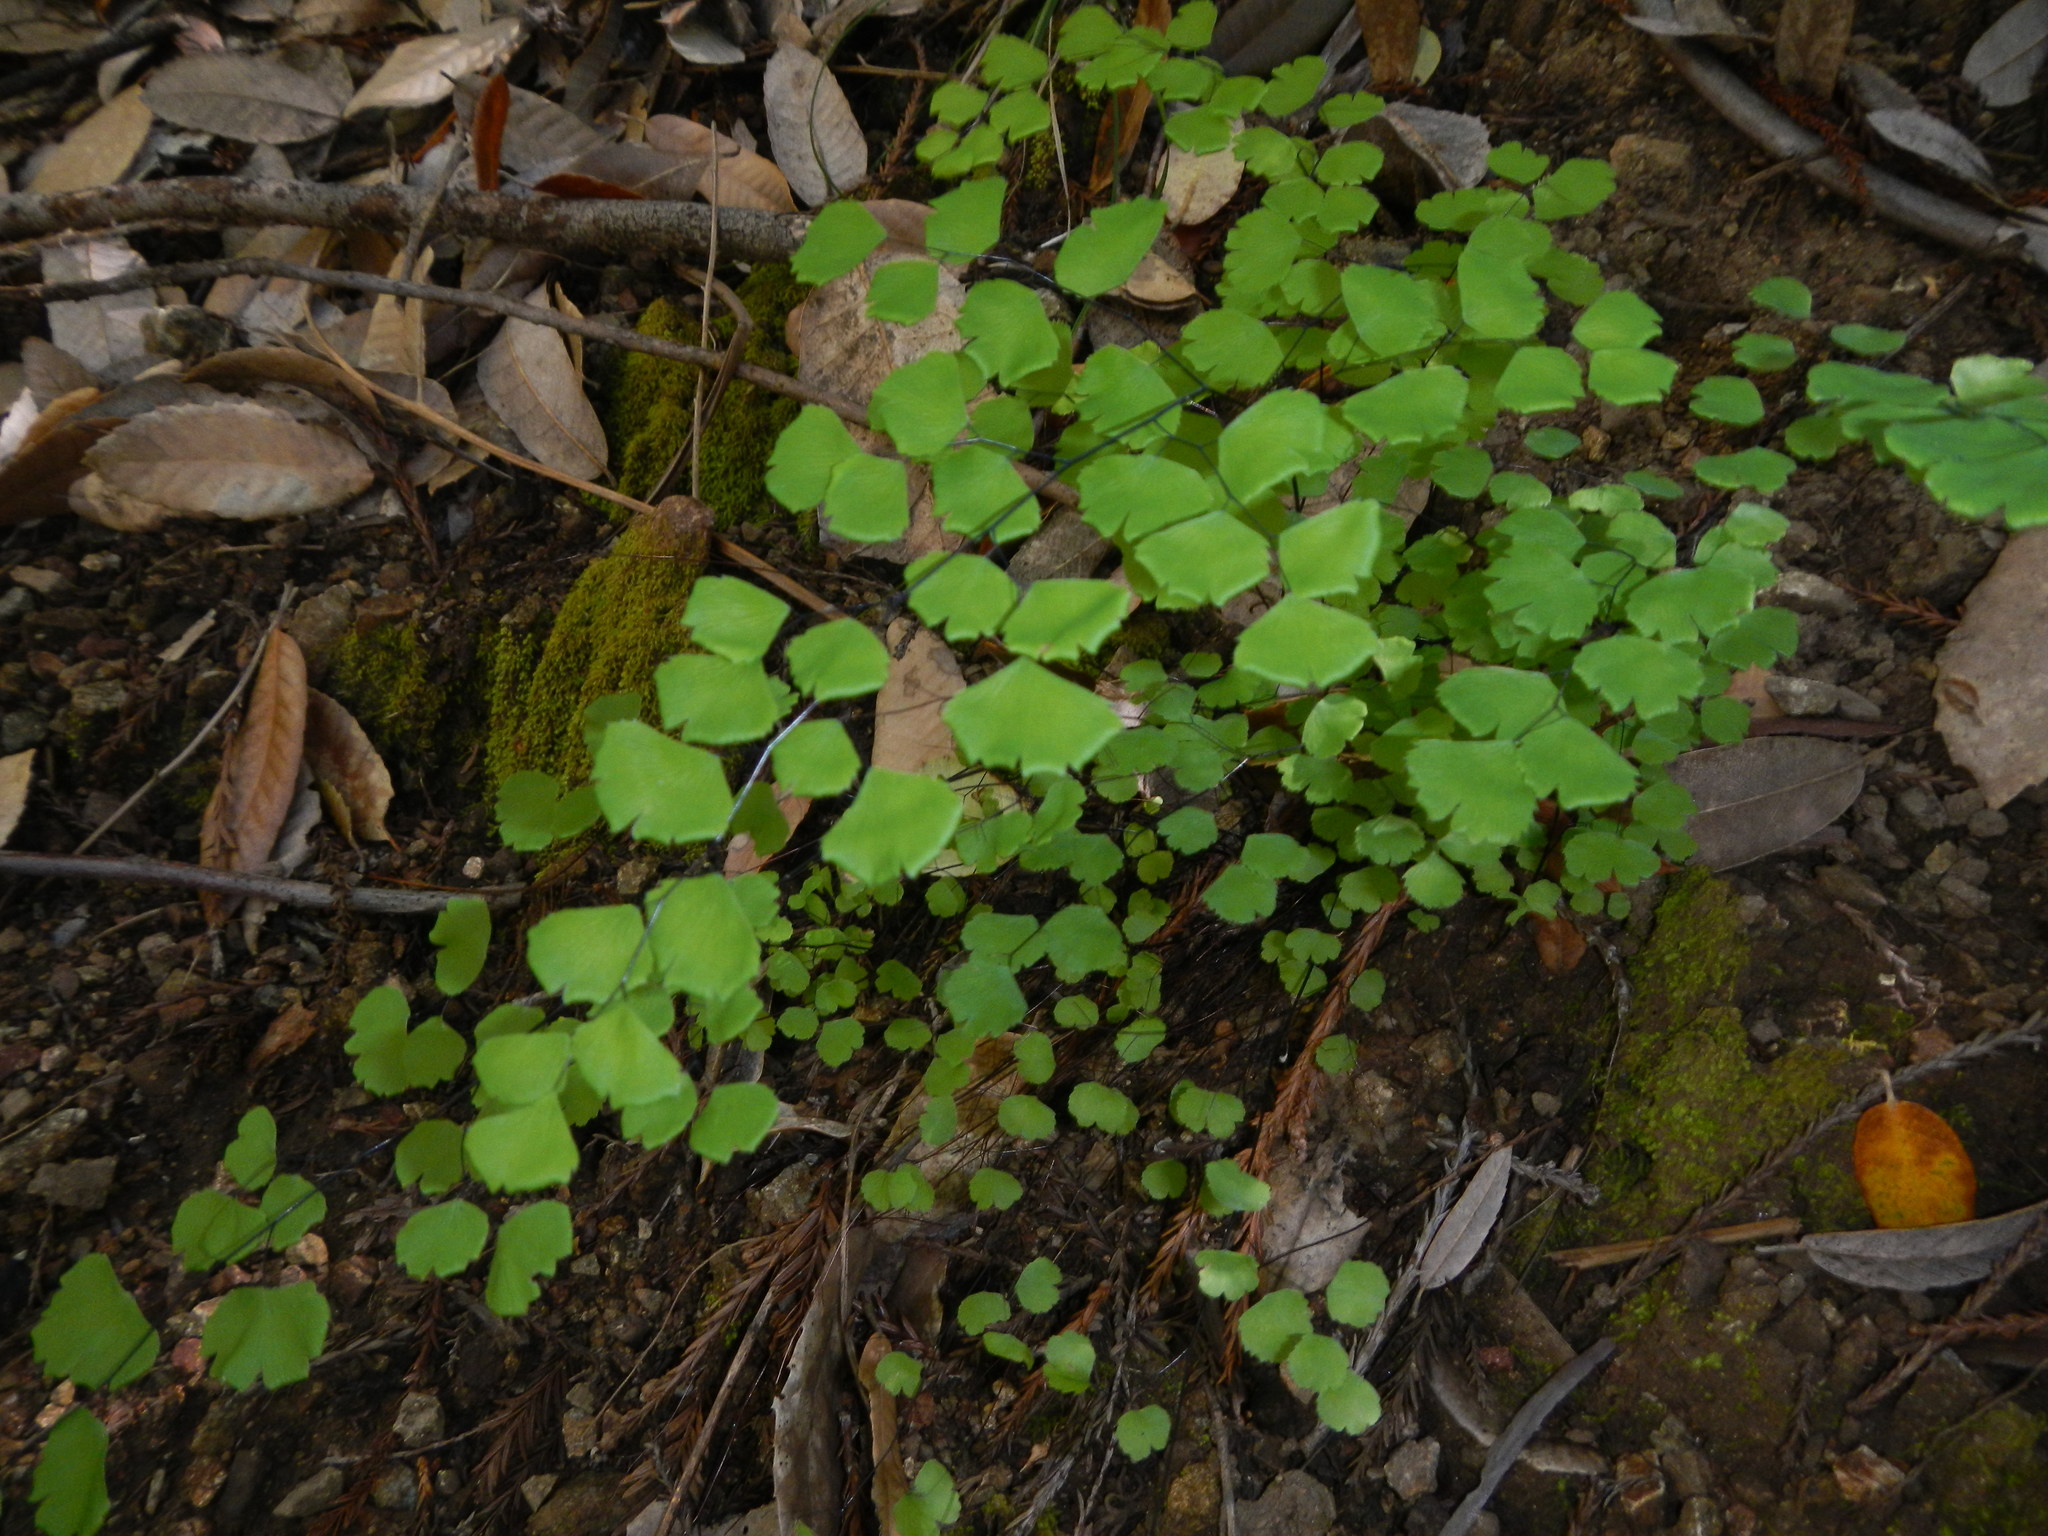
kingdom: Plantae
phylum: Tracheophyta
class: Polypodiopsida
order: Polypodiales
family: Pteridaceae
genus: Adiantum
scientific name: Adiantum jordanii
